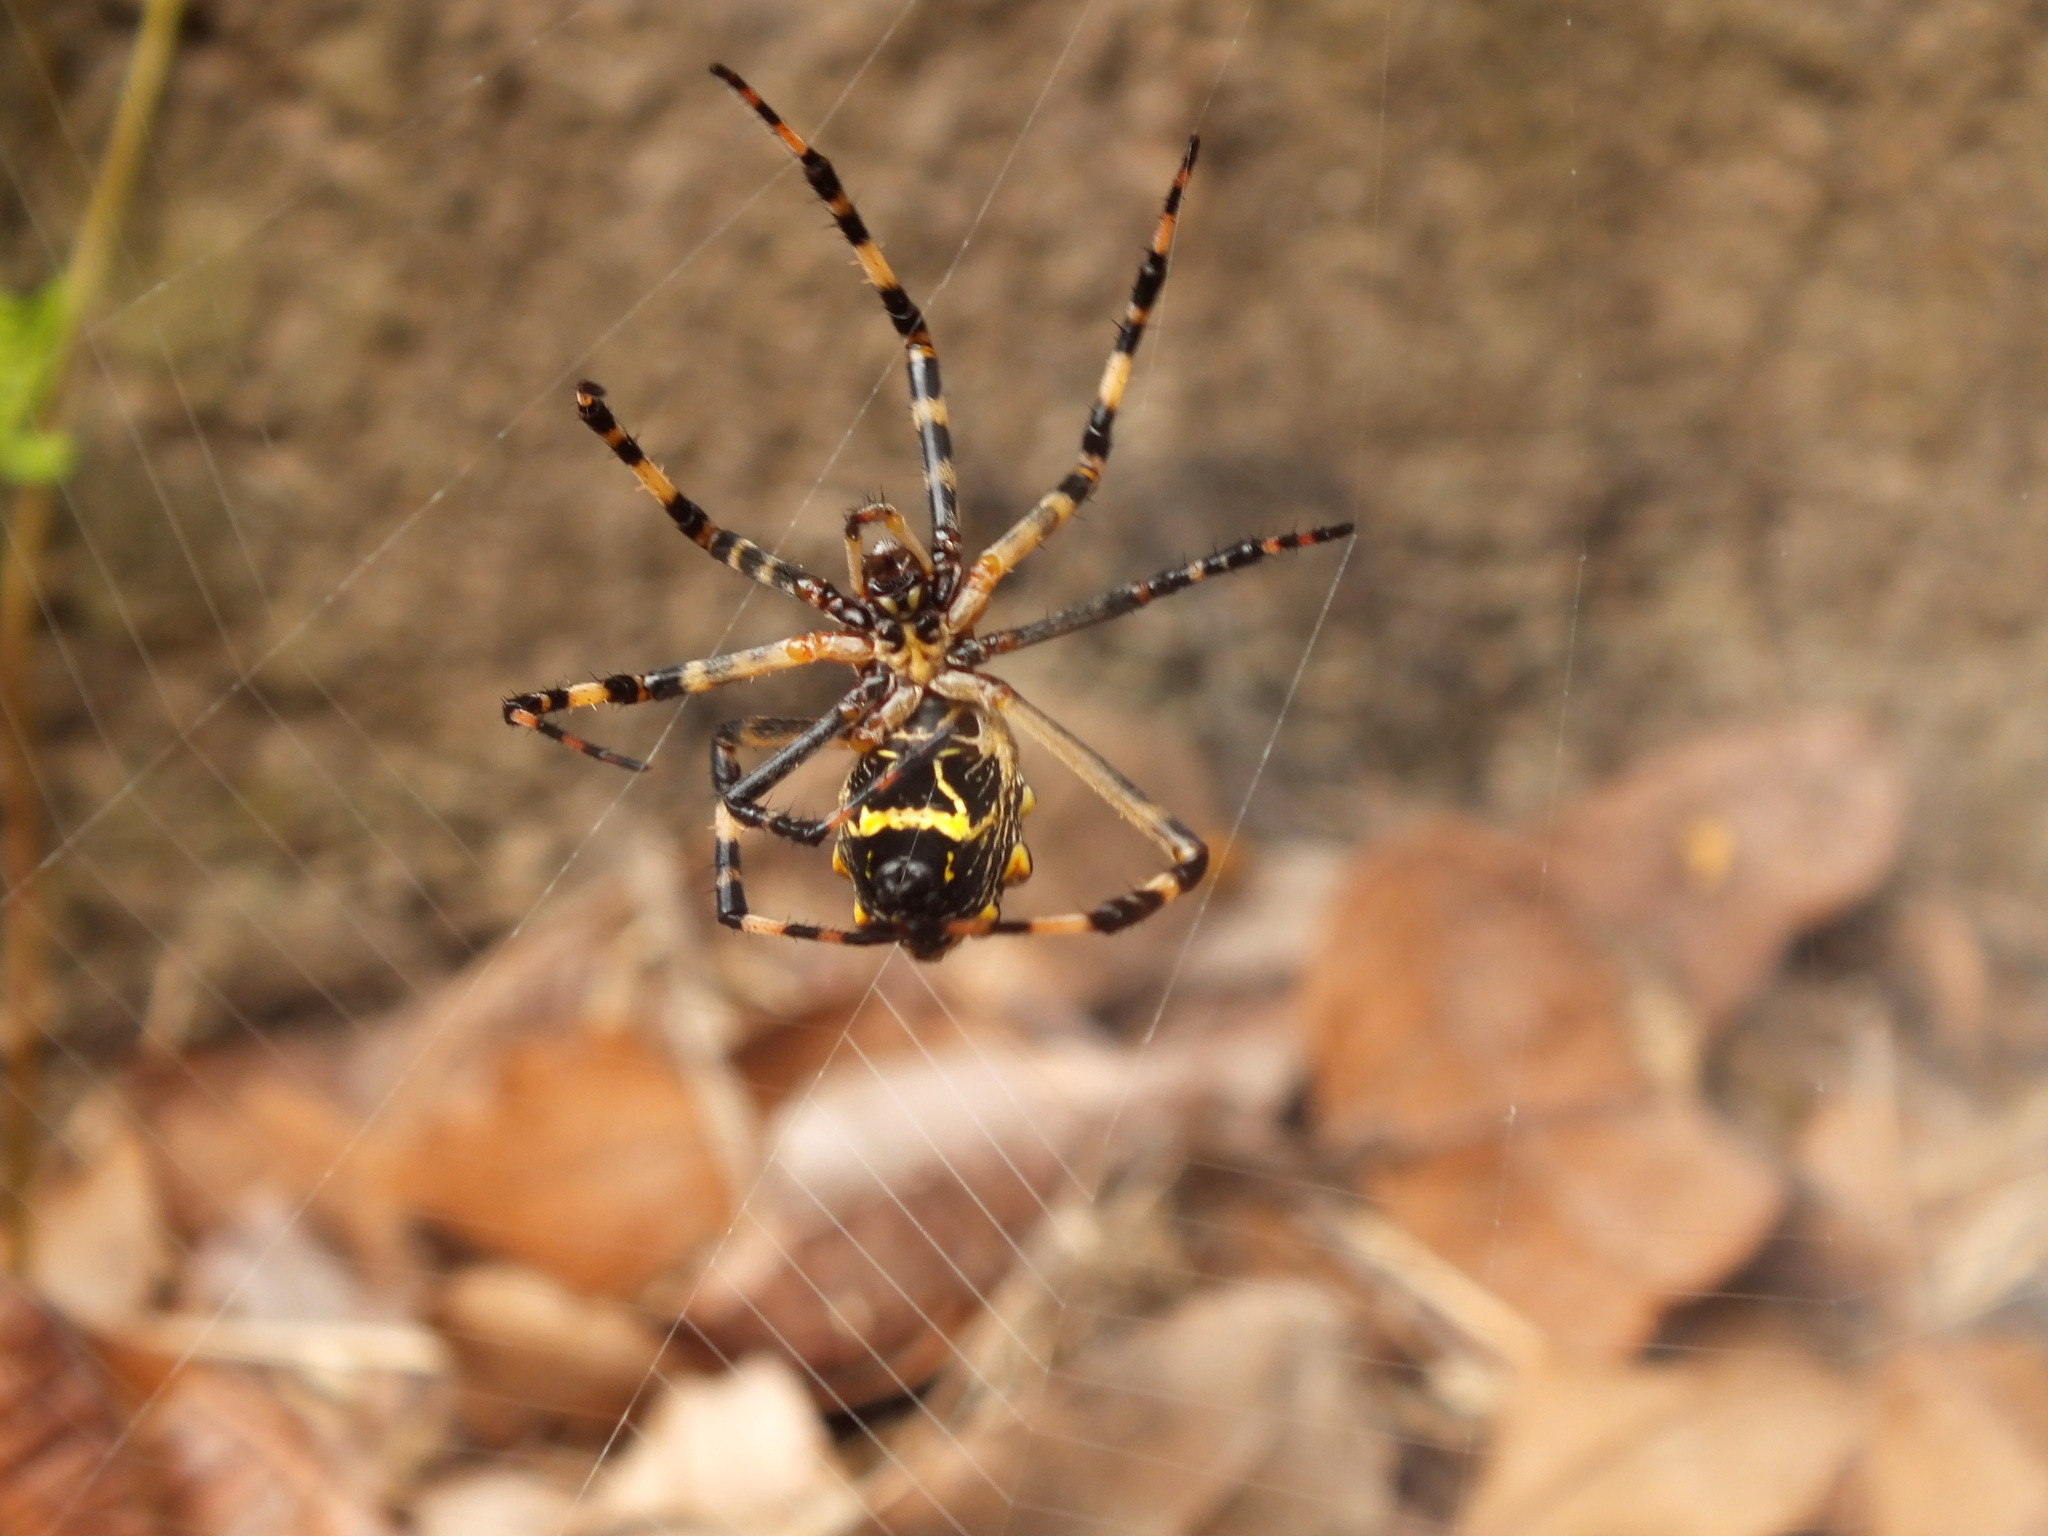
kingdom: Animalia
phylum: Arthropoda
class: Arachnida
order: Araneae
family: Araneidae
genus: Argiope
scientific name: Argiope argentata
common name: Orb weavers
